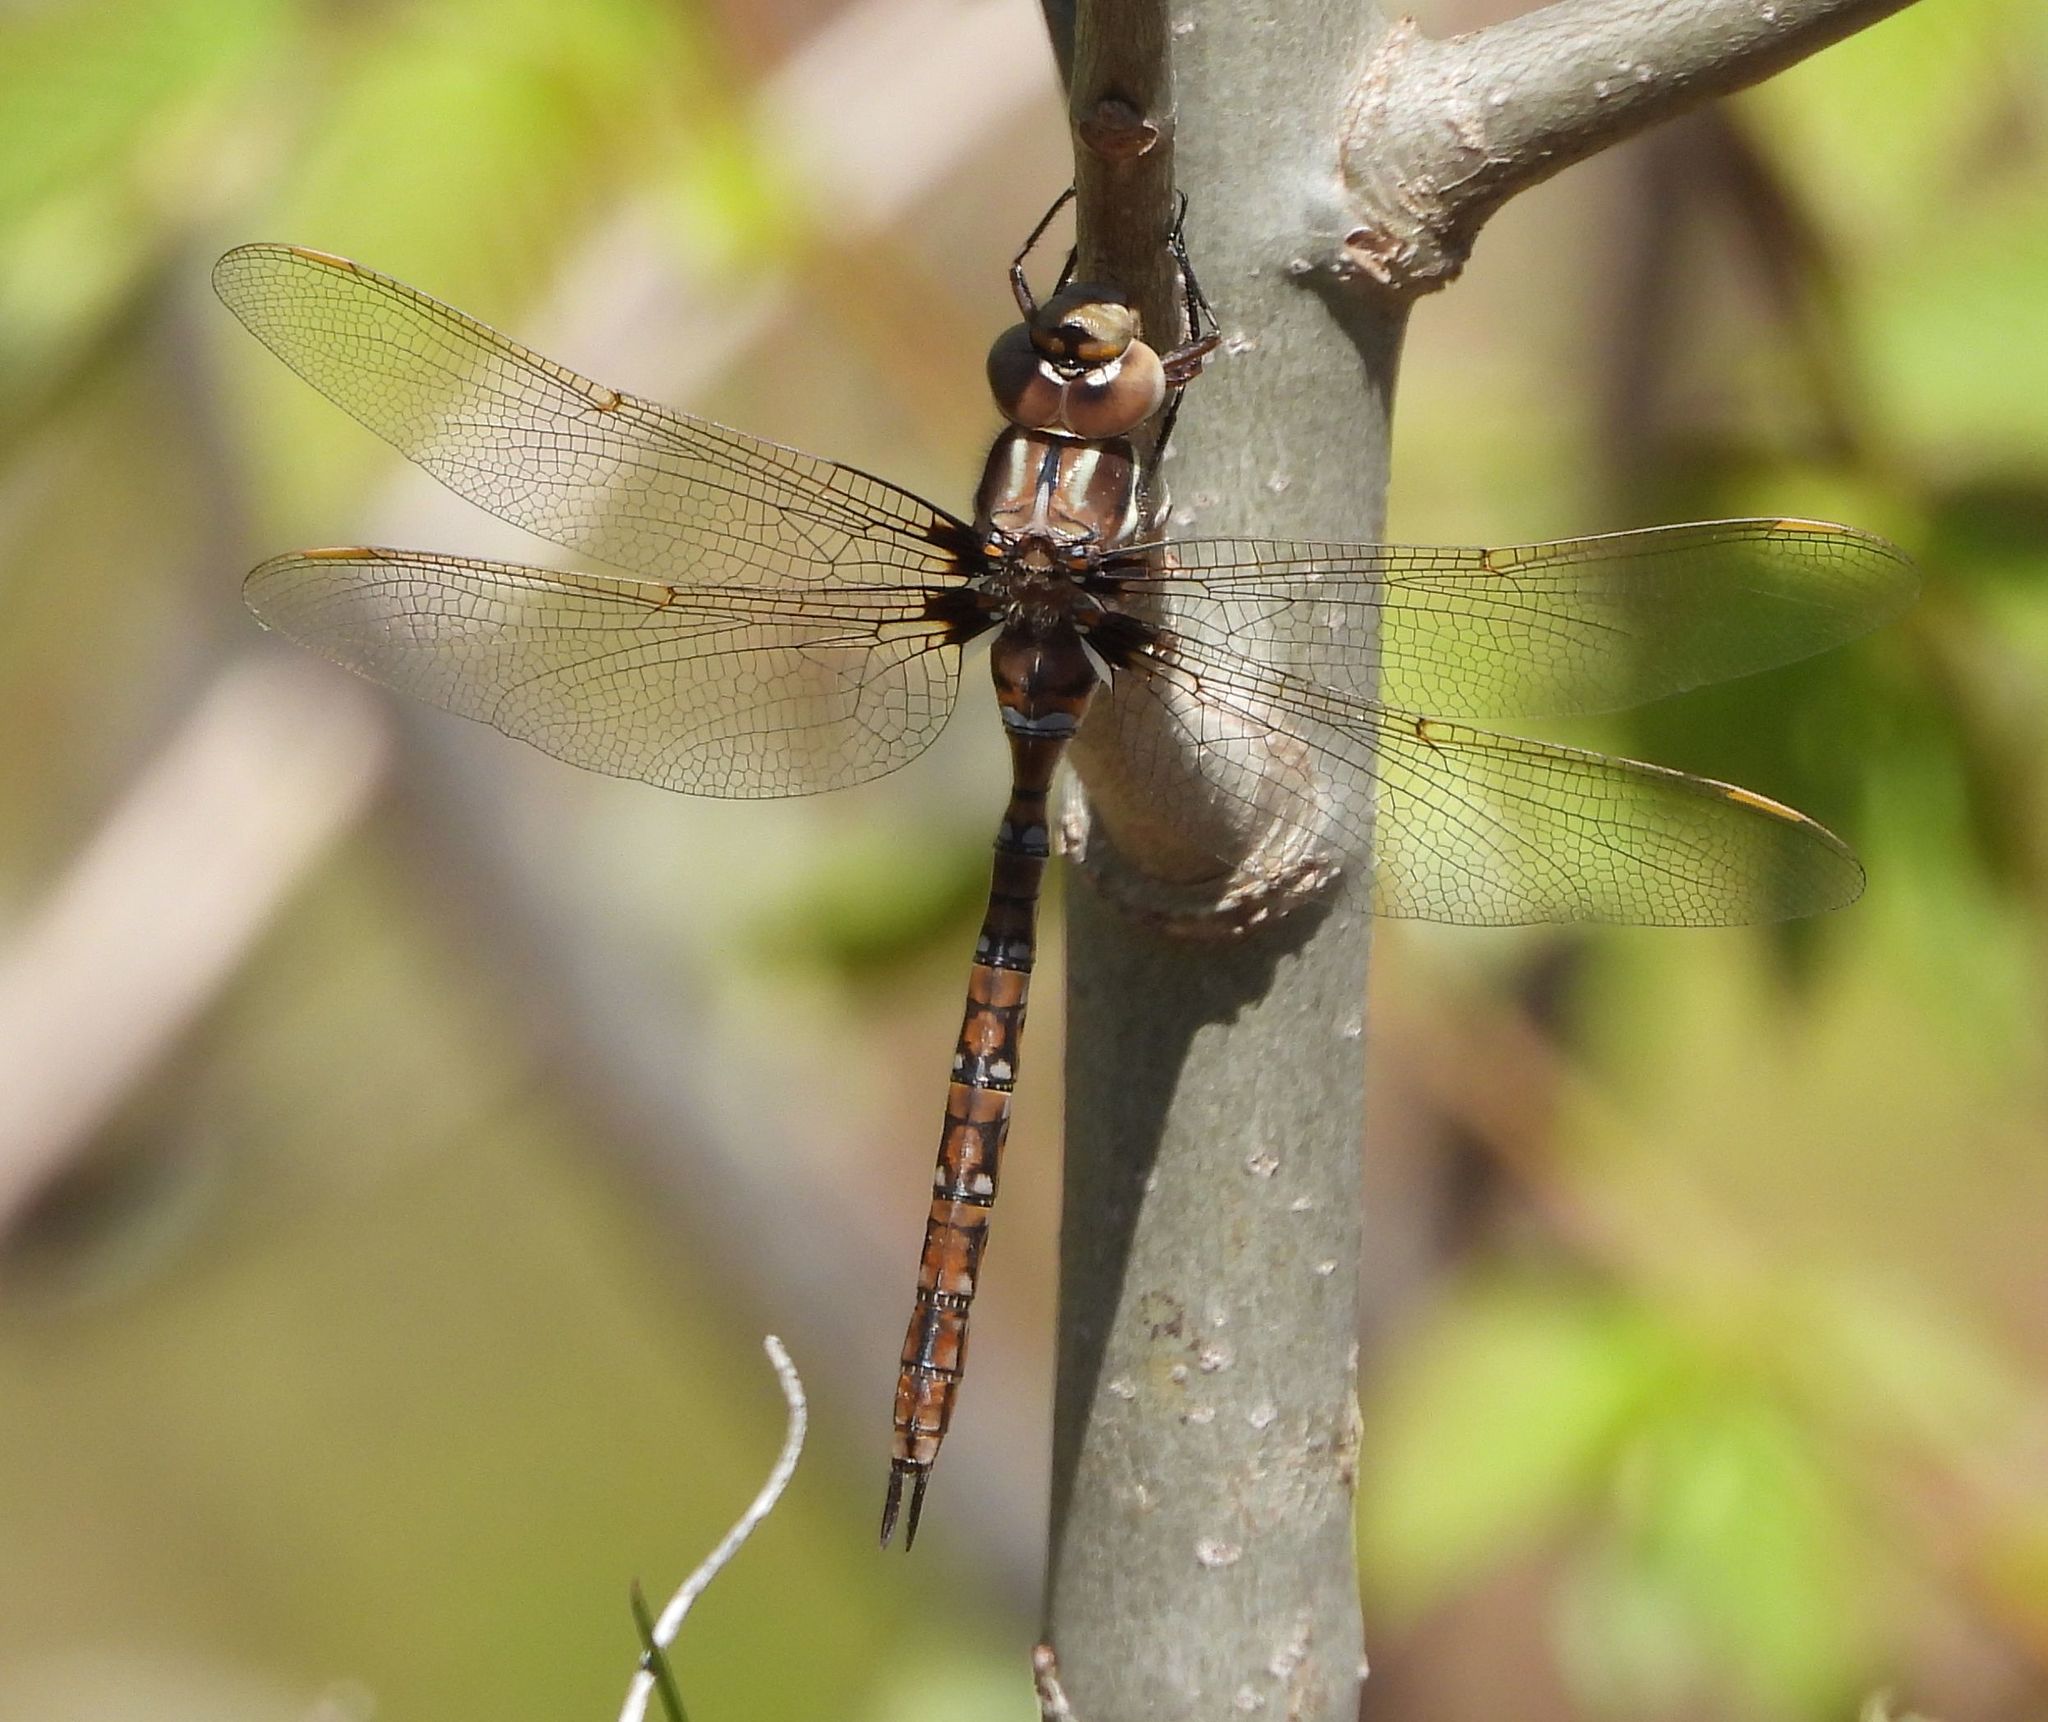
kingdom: Animalia
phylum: Arthropoda
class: Insecta
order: Odonata
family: Aeshnidae
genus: Basiaeschna
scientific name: Basiaeschna janata
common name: Springtime darner
